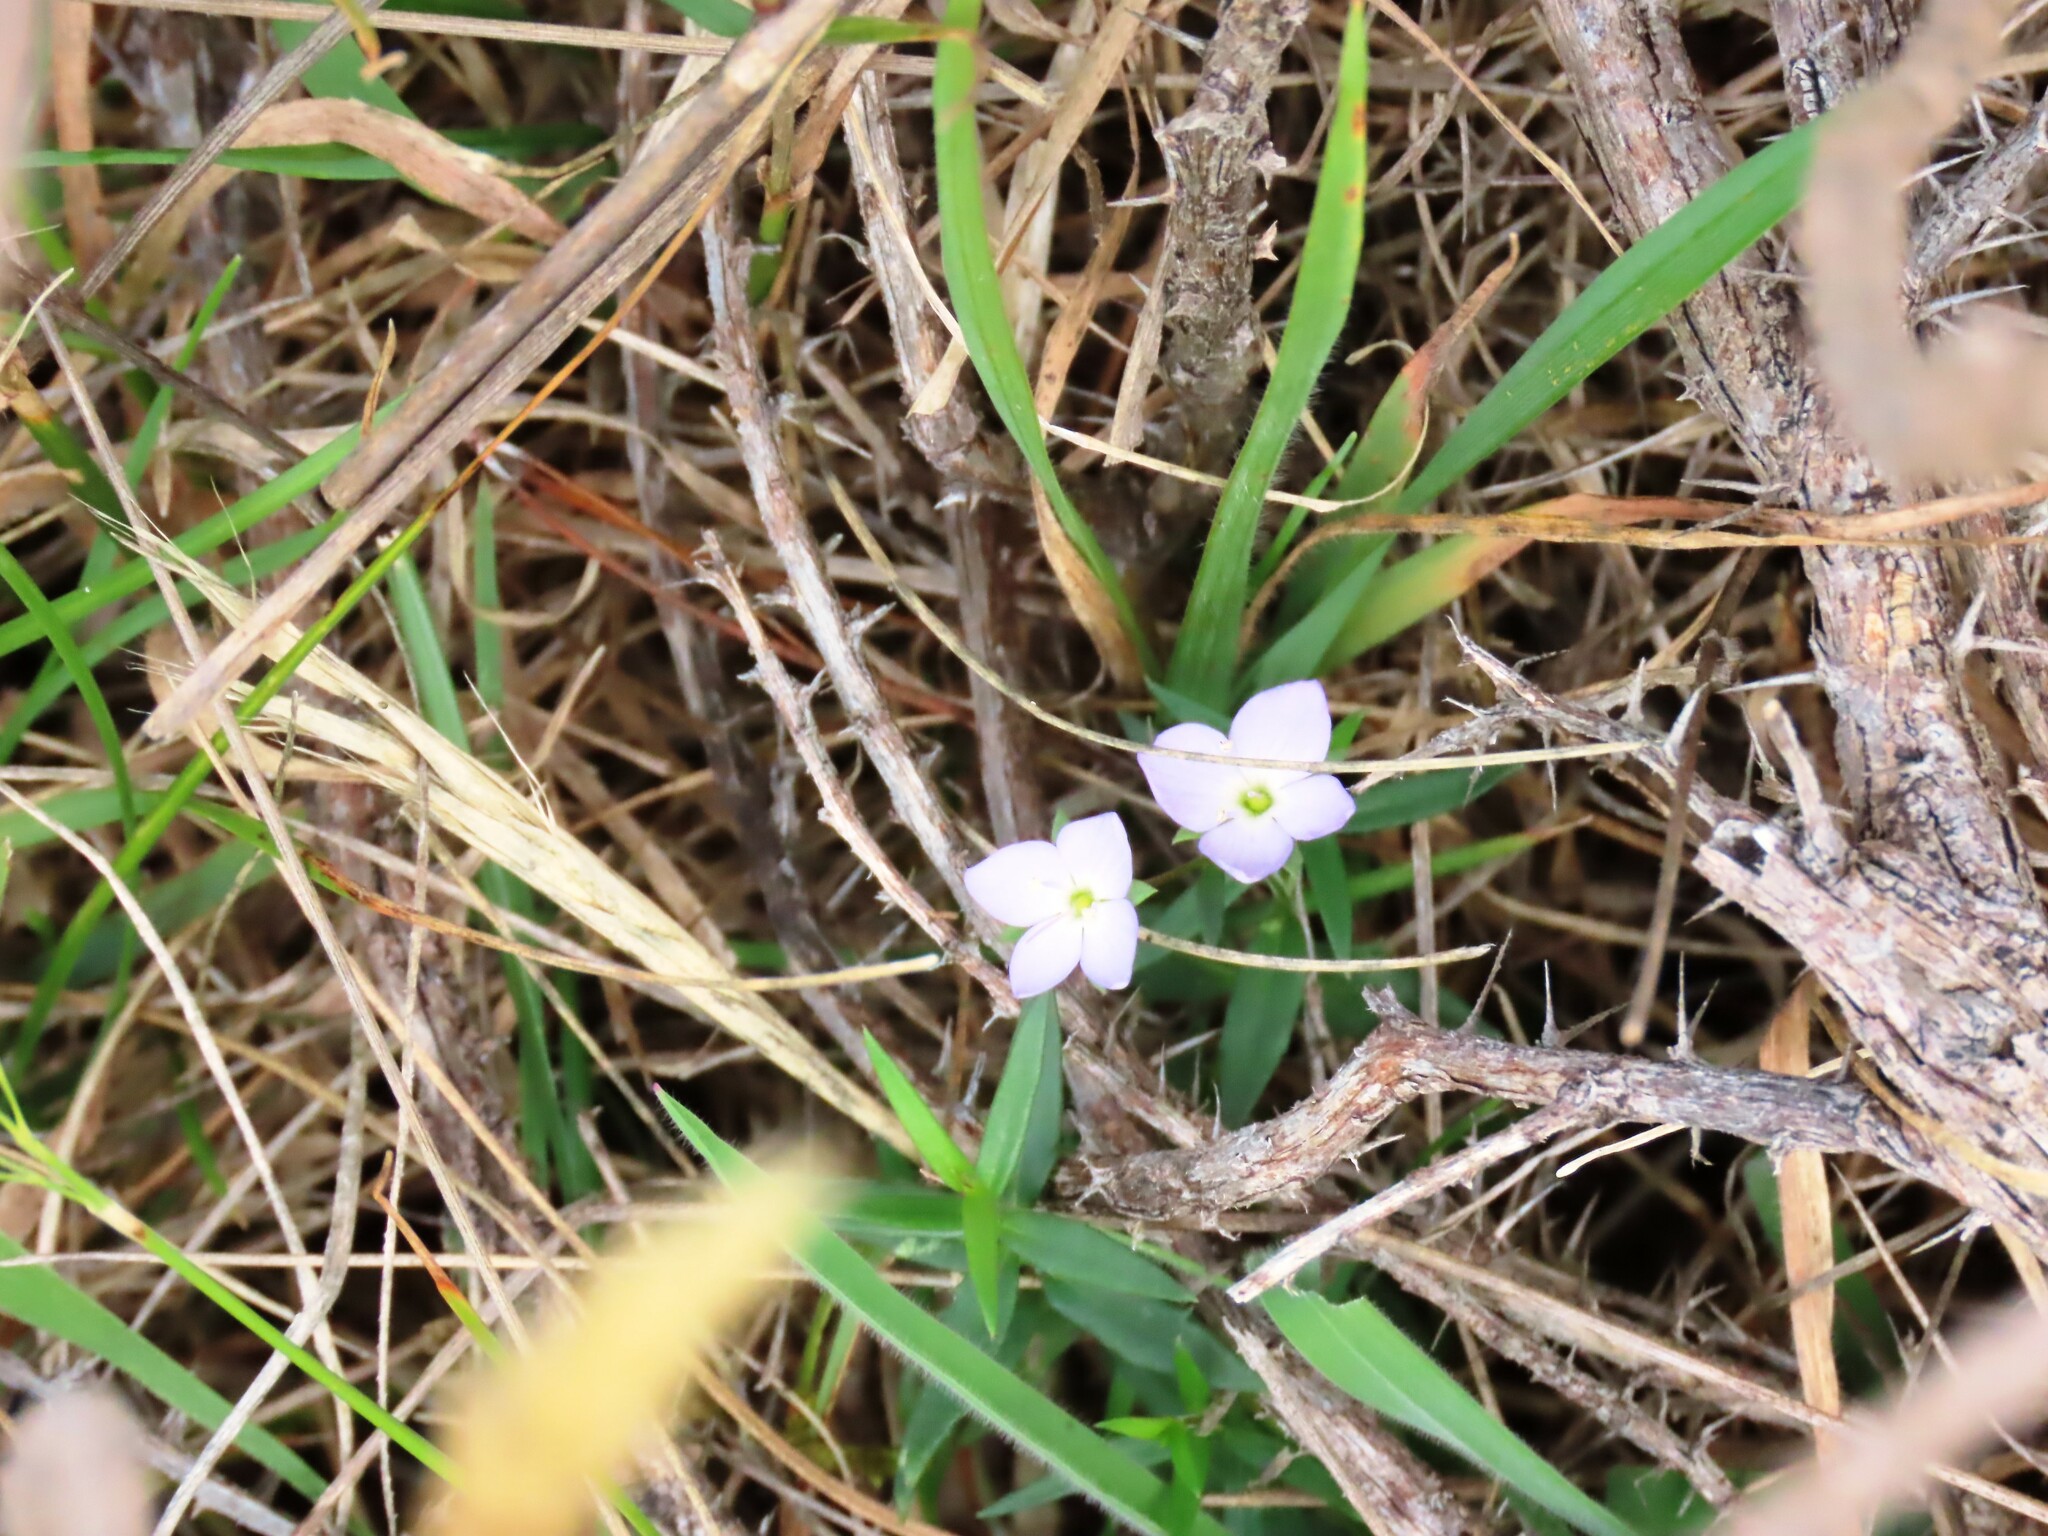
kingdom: Plantae
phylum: Tracheophyta
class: Magnoliopsida
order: Lamiales
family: Plantaginaceae
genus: Veronica
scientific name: Veronica gracilis
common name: Slender speedwell
